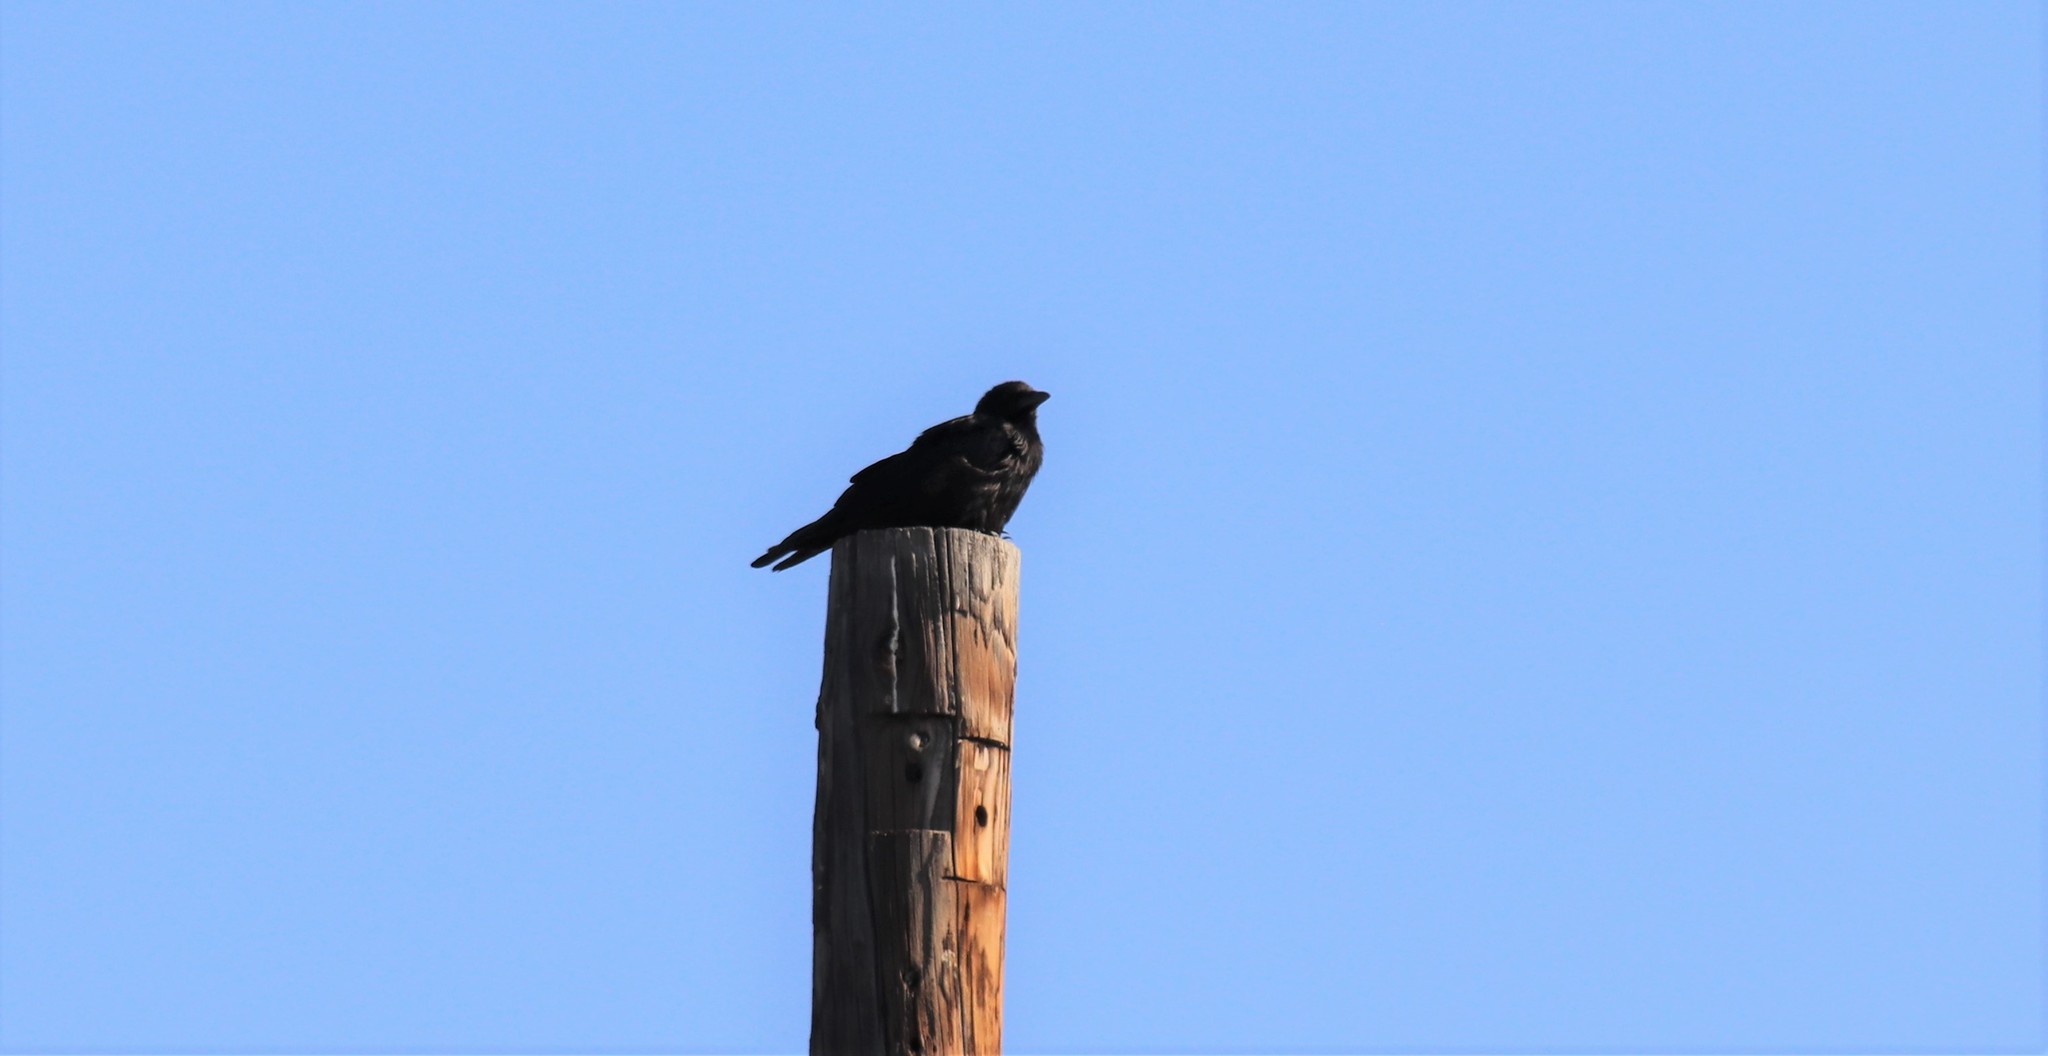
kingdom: Animalia
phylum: Chordata
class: Aves
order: Passeriformes
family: Corvidae
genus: Corvus
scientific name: Corvus brachyrhynchos
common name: American crow
